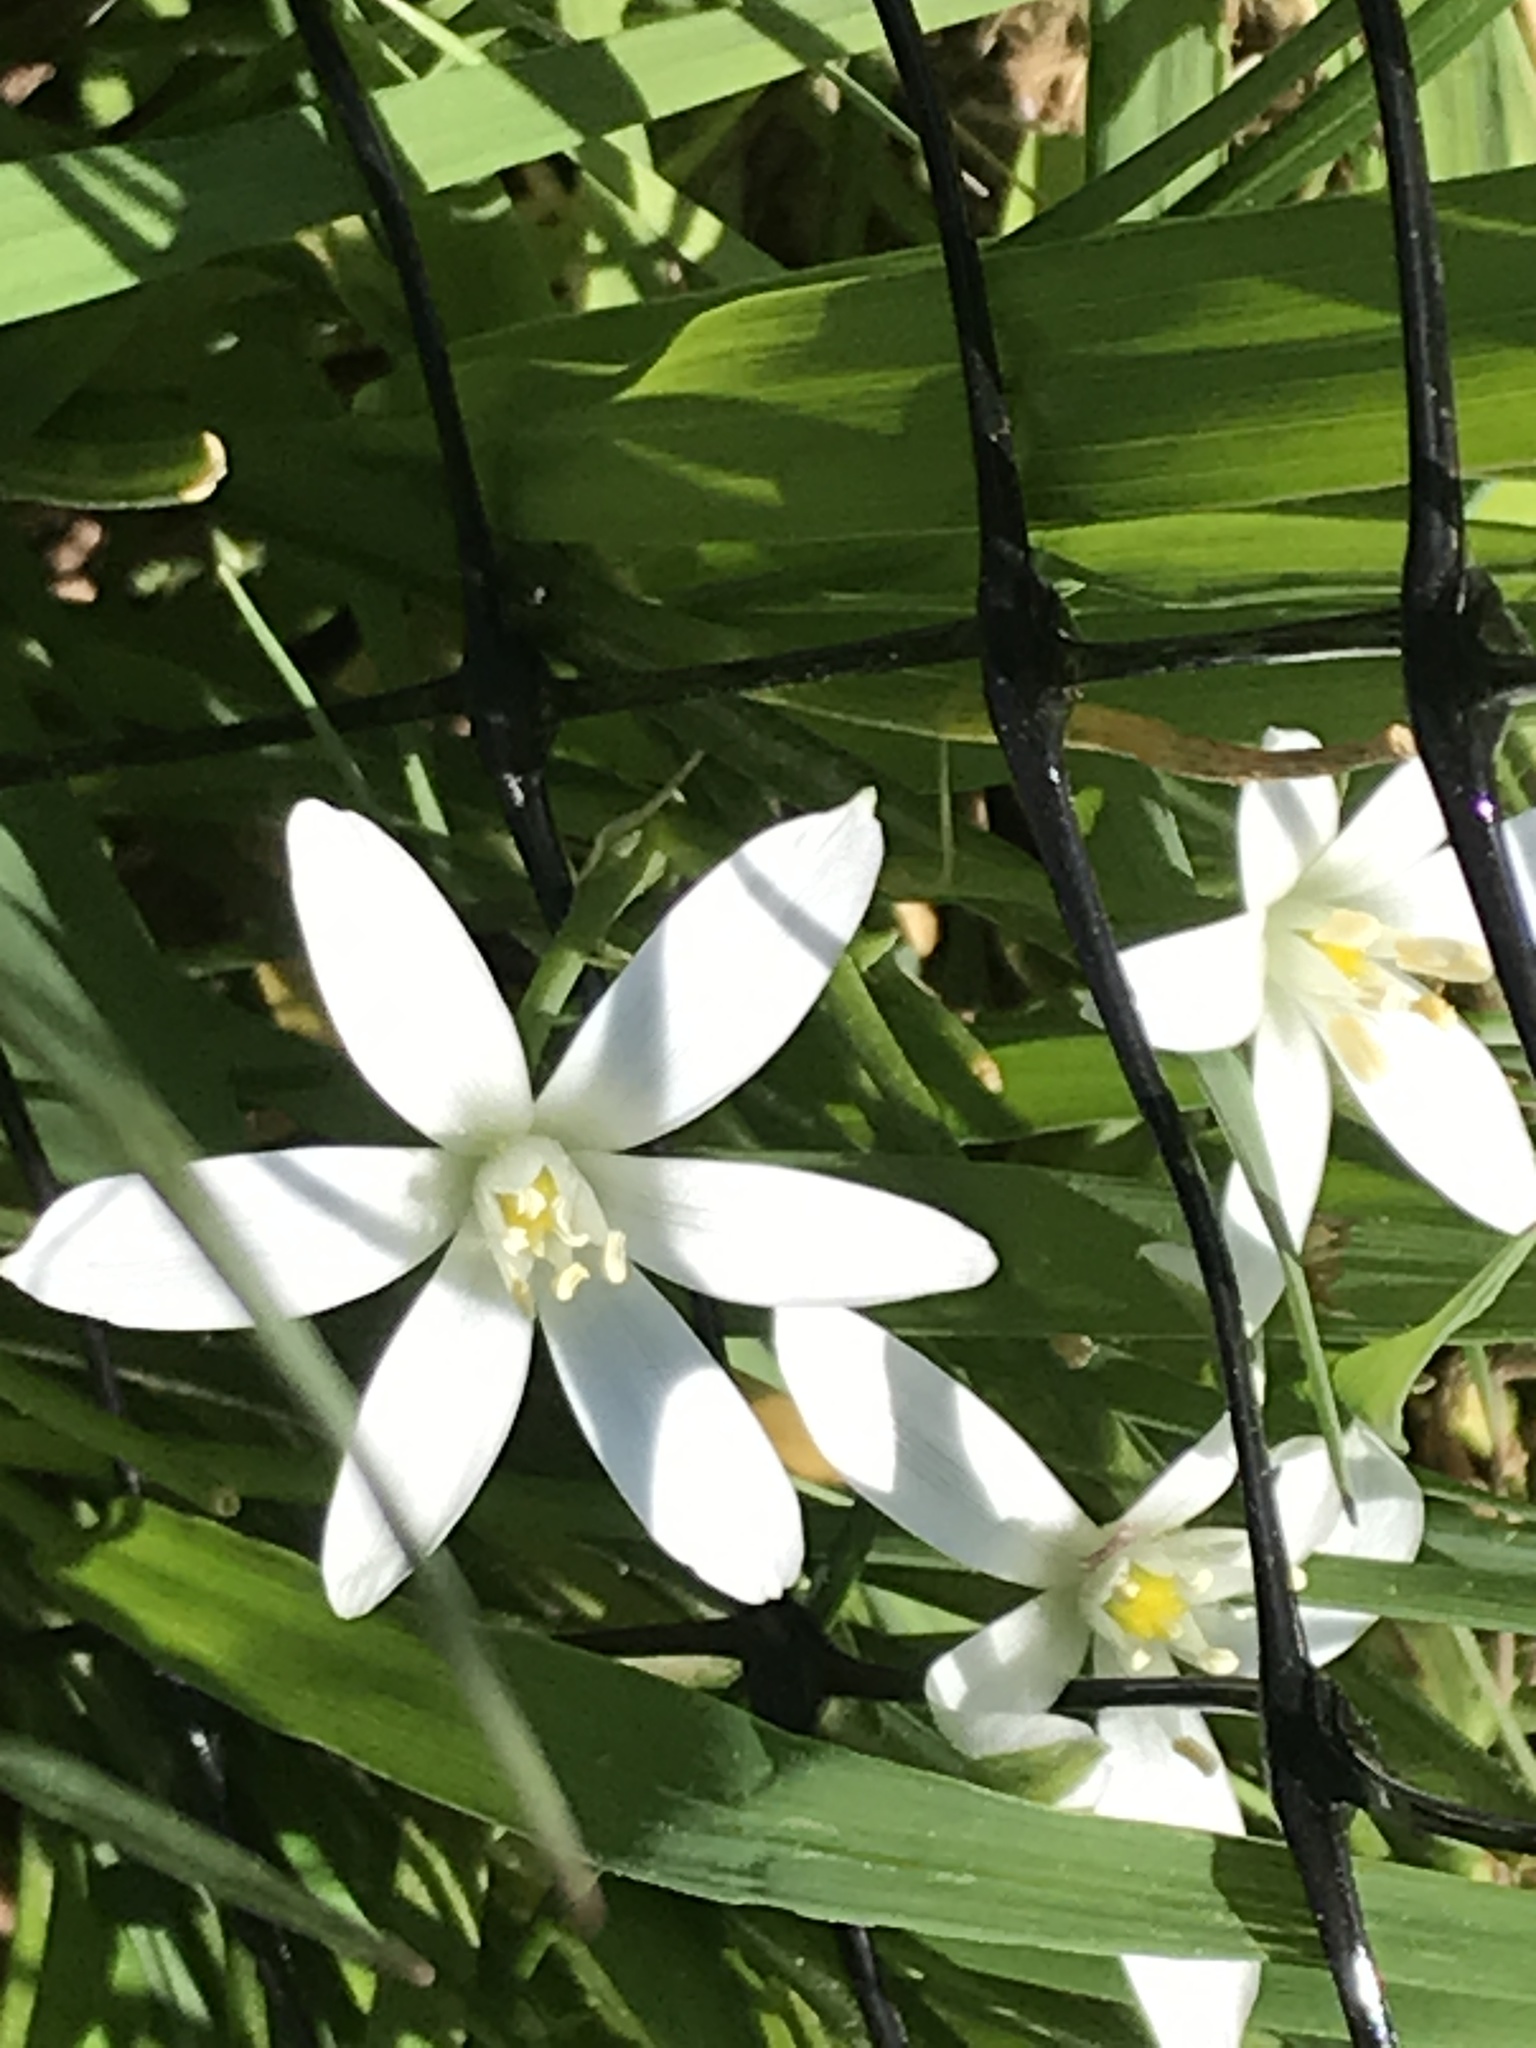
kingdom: Plantae
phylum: Tracheophyta
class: Liliopsida
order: Asparagales
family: Asparagaceae
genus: Ornithogalum
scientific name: Ornithogalum umbellatum
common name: Garden star-of-bethlehem
